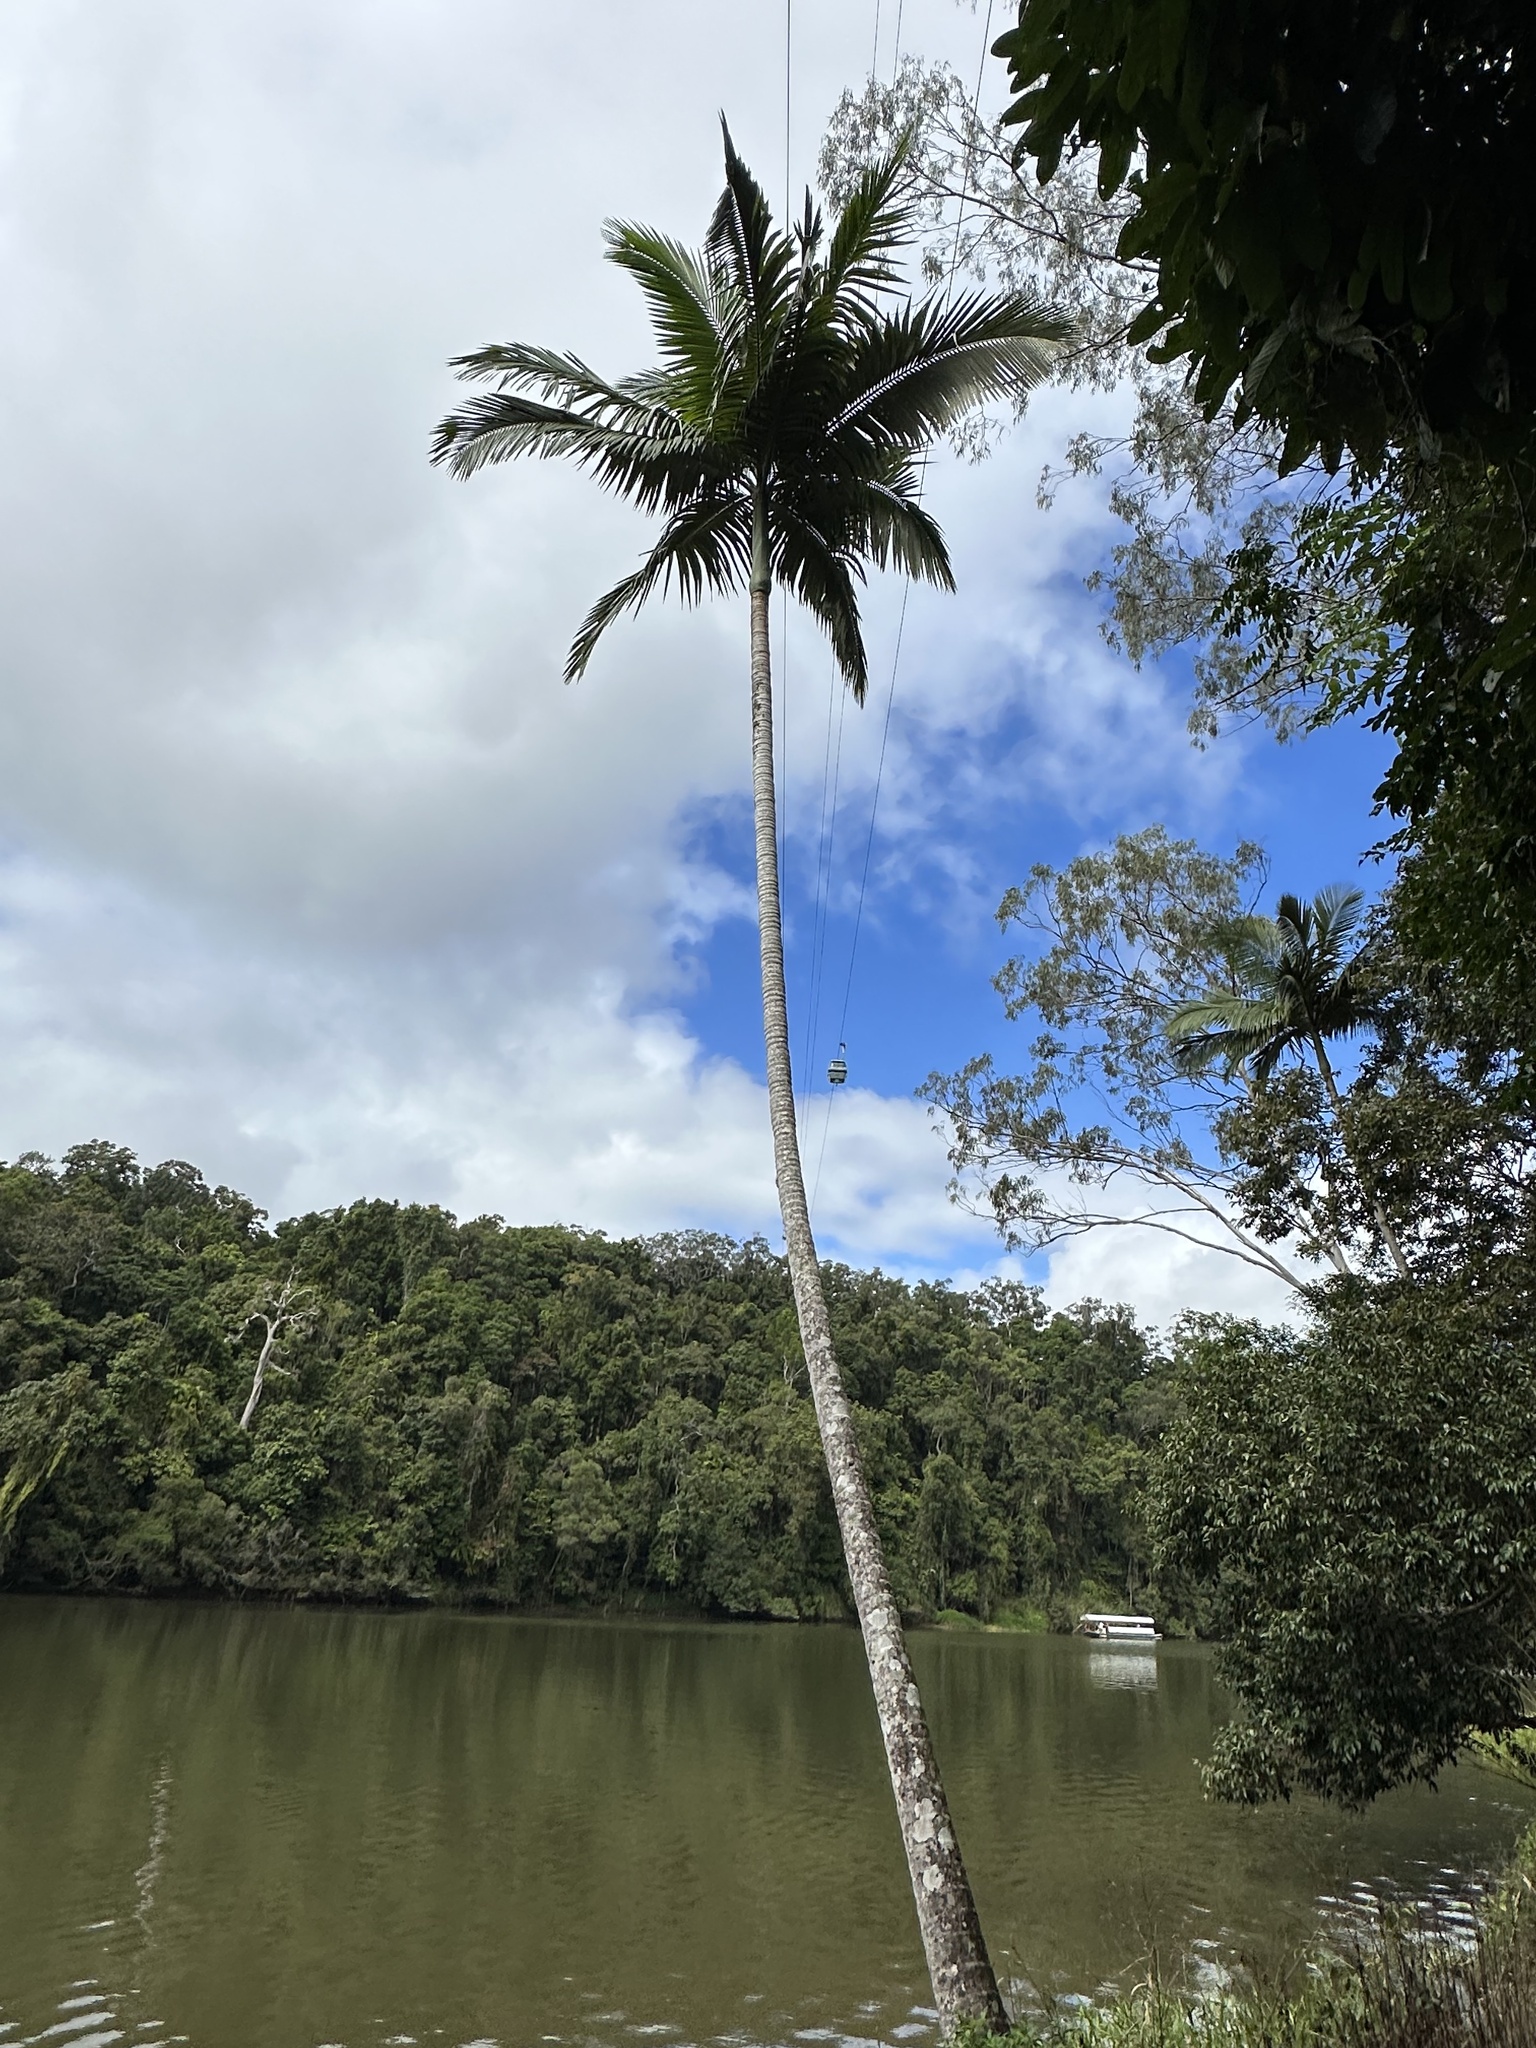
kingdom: Plantae
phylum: Tracheophyta
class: Liliopsida
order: Arecales
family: Arecaceae
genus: Archontophoenix
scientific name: Archontophoenix alexandrae
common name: Alexandra palm
